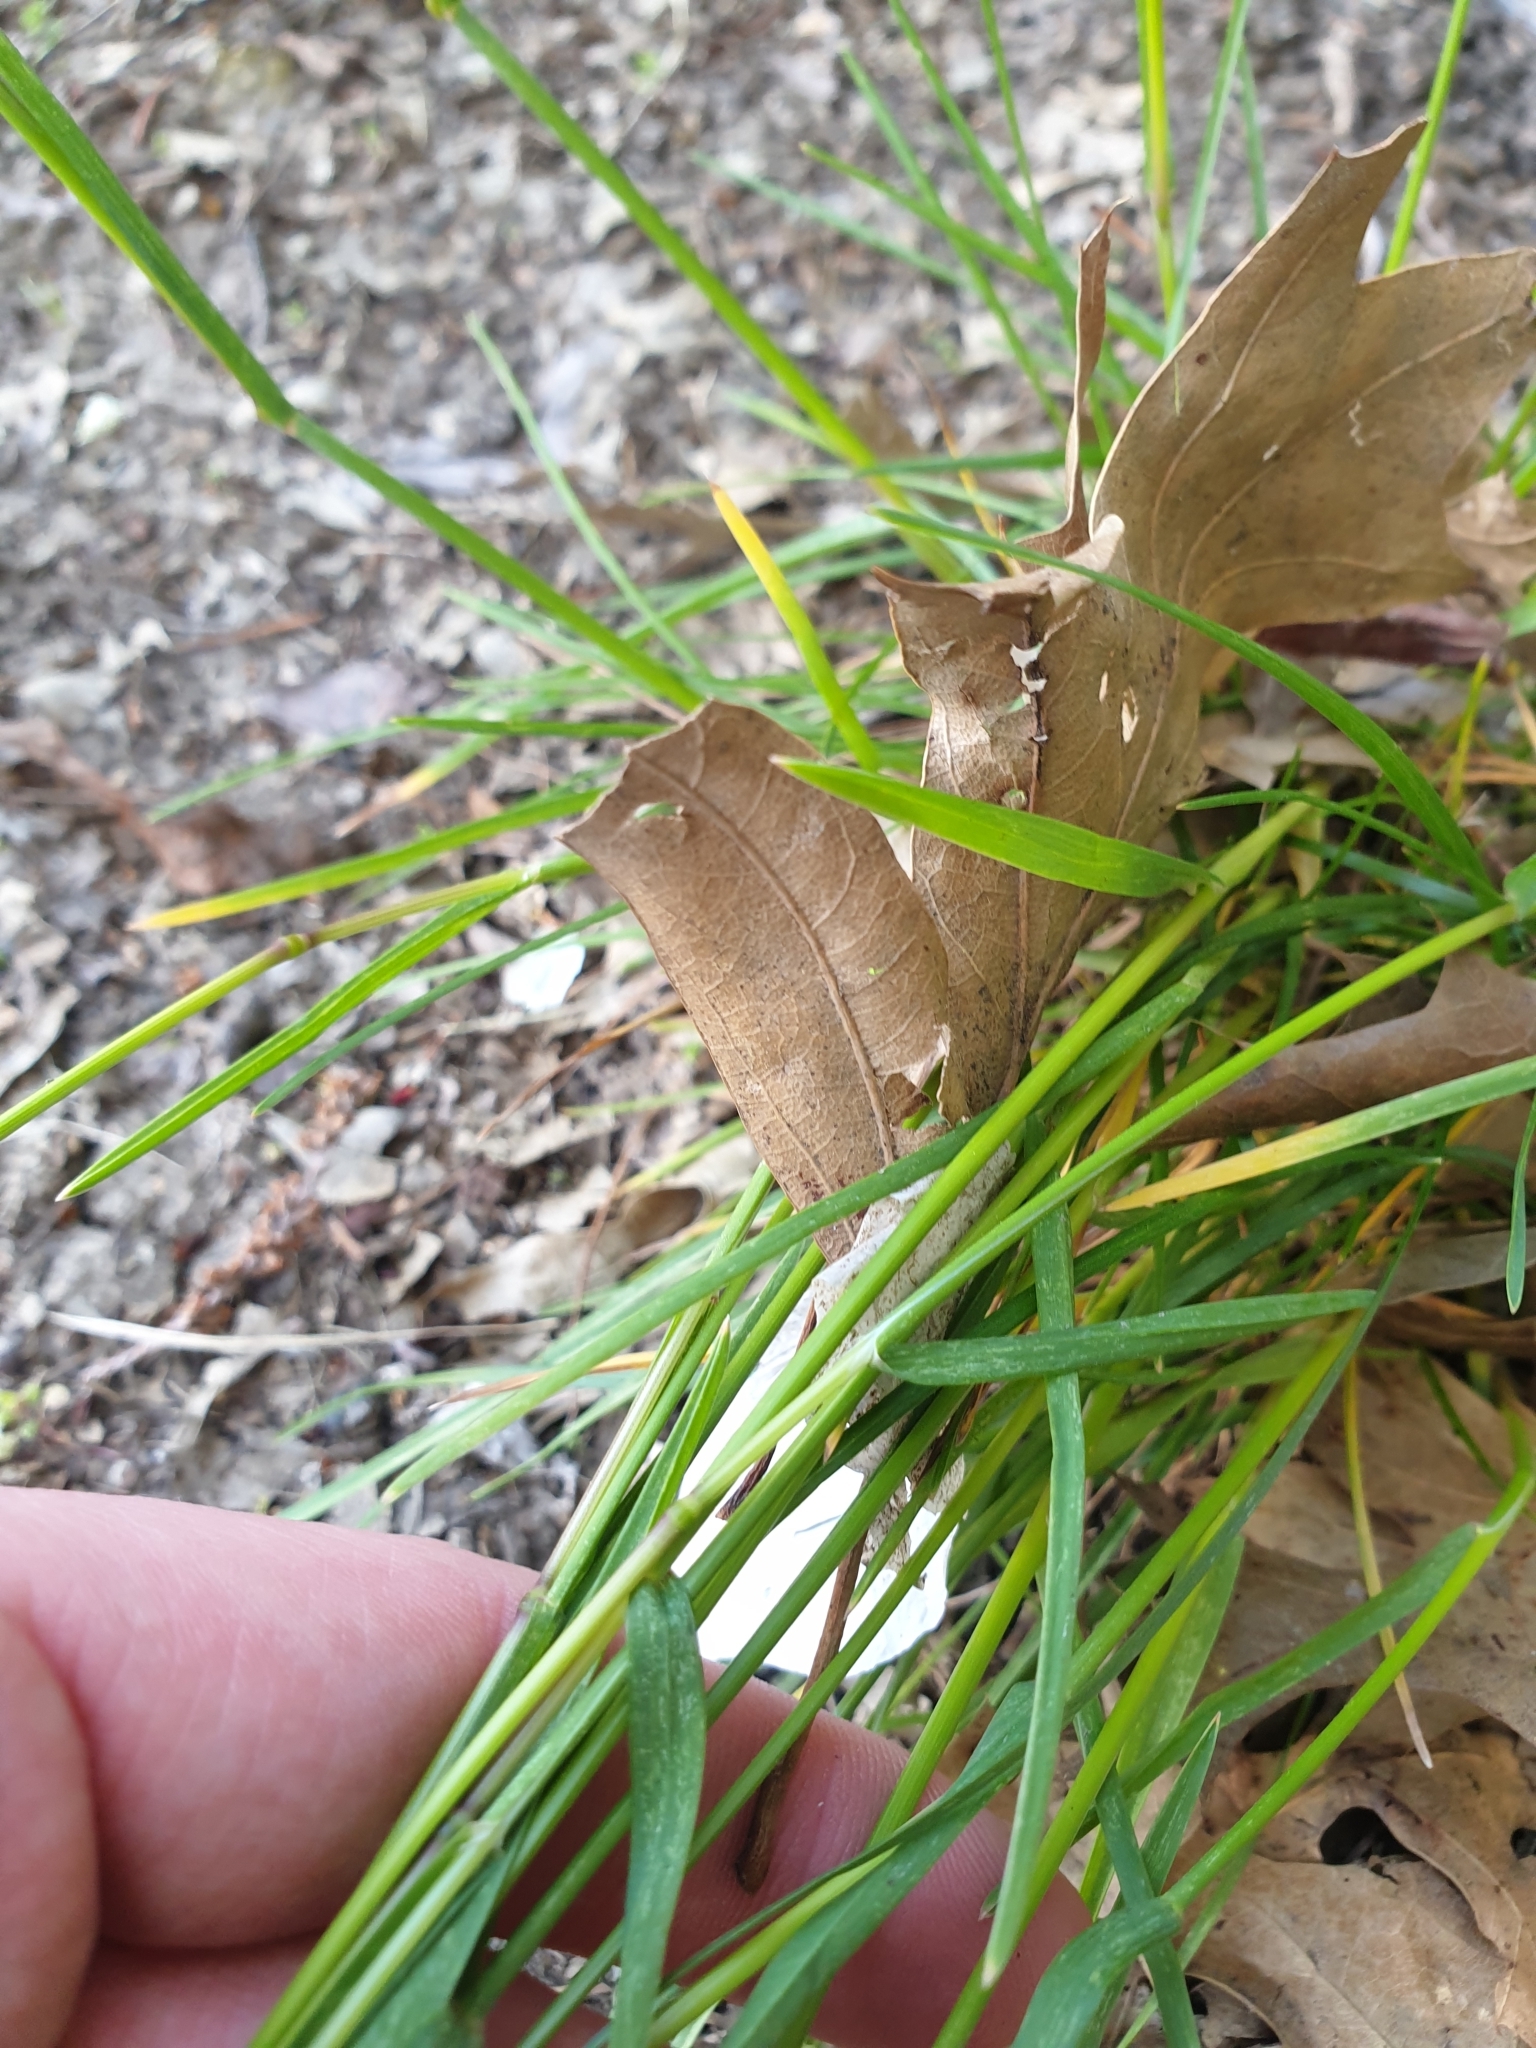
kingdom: Plantae
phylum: Tracheophyta
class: Liliopsida
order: Poales
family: Poaceae
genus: Poa
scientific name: Poa bulbosa
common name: Bulbous bluegrass
